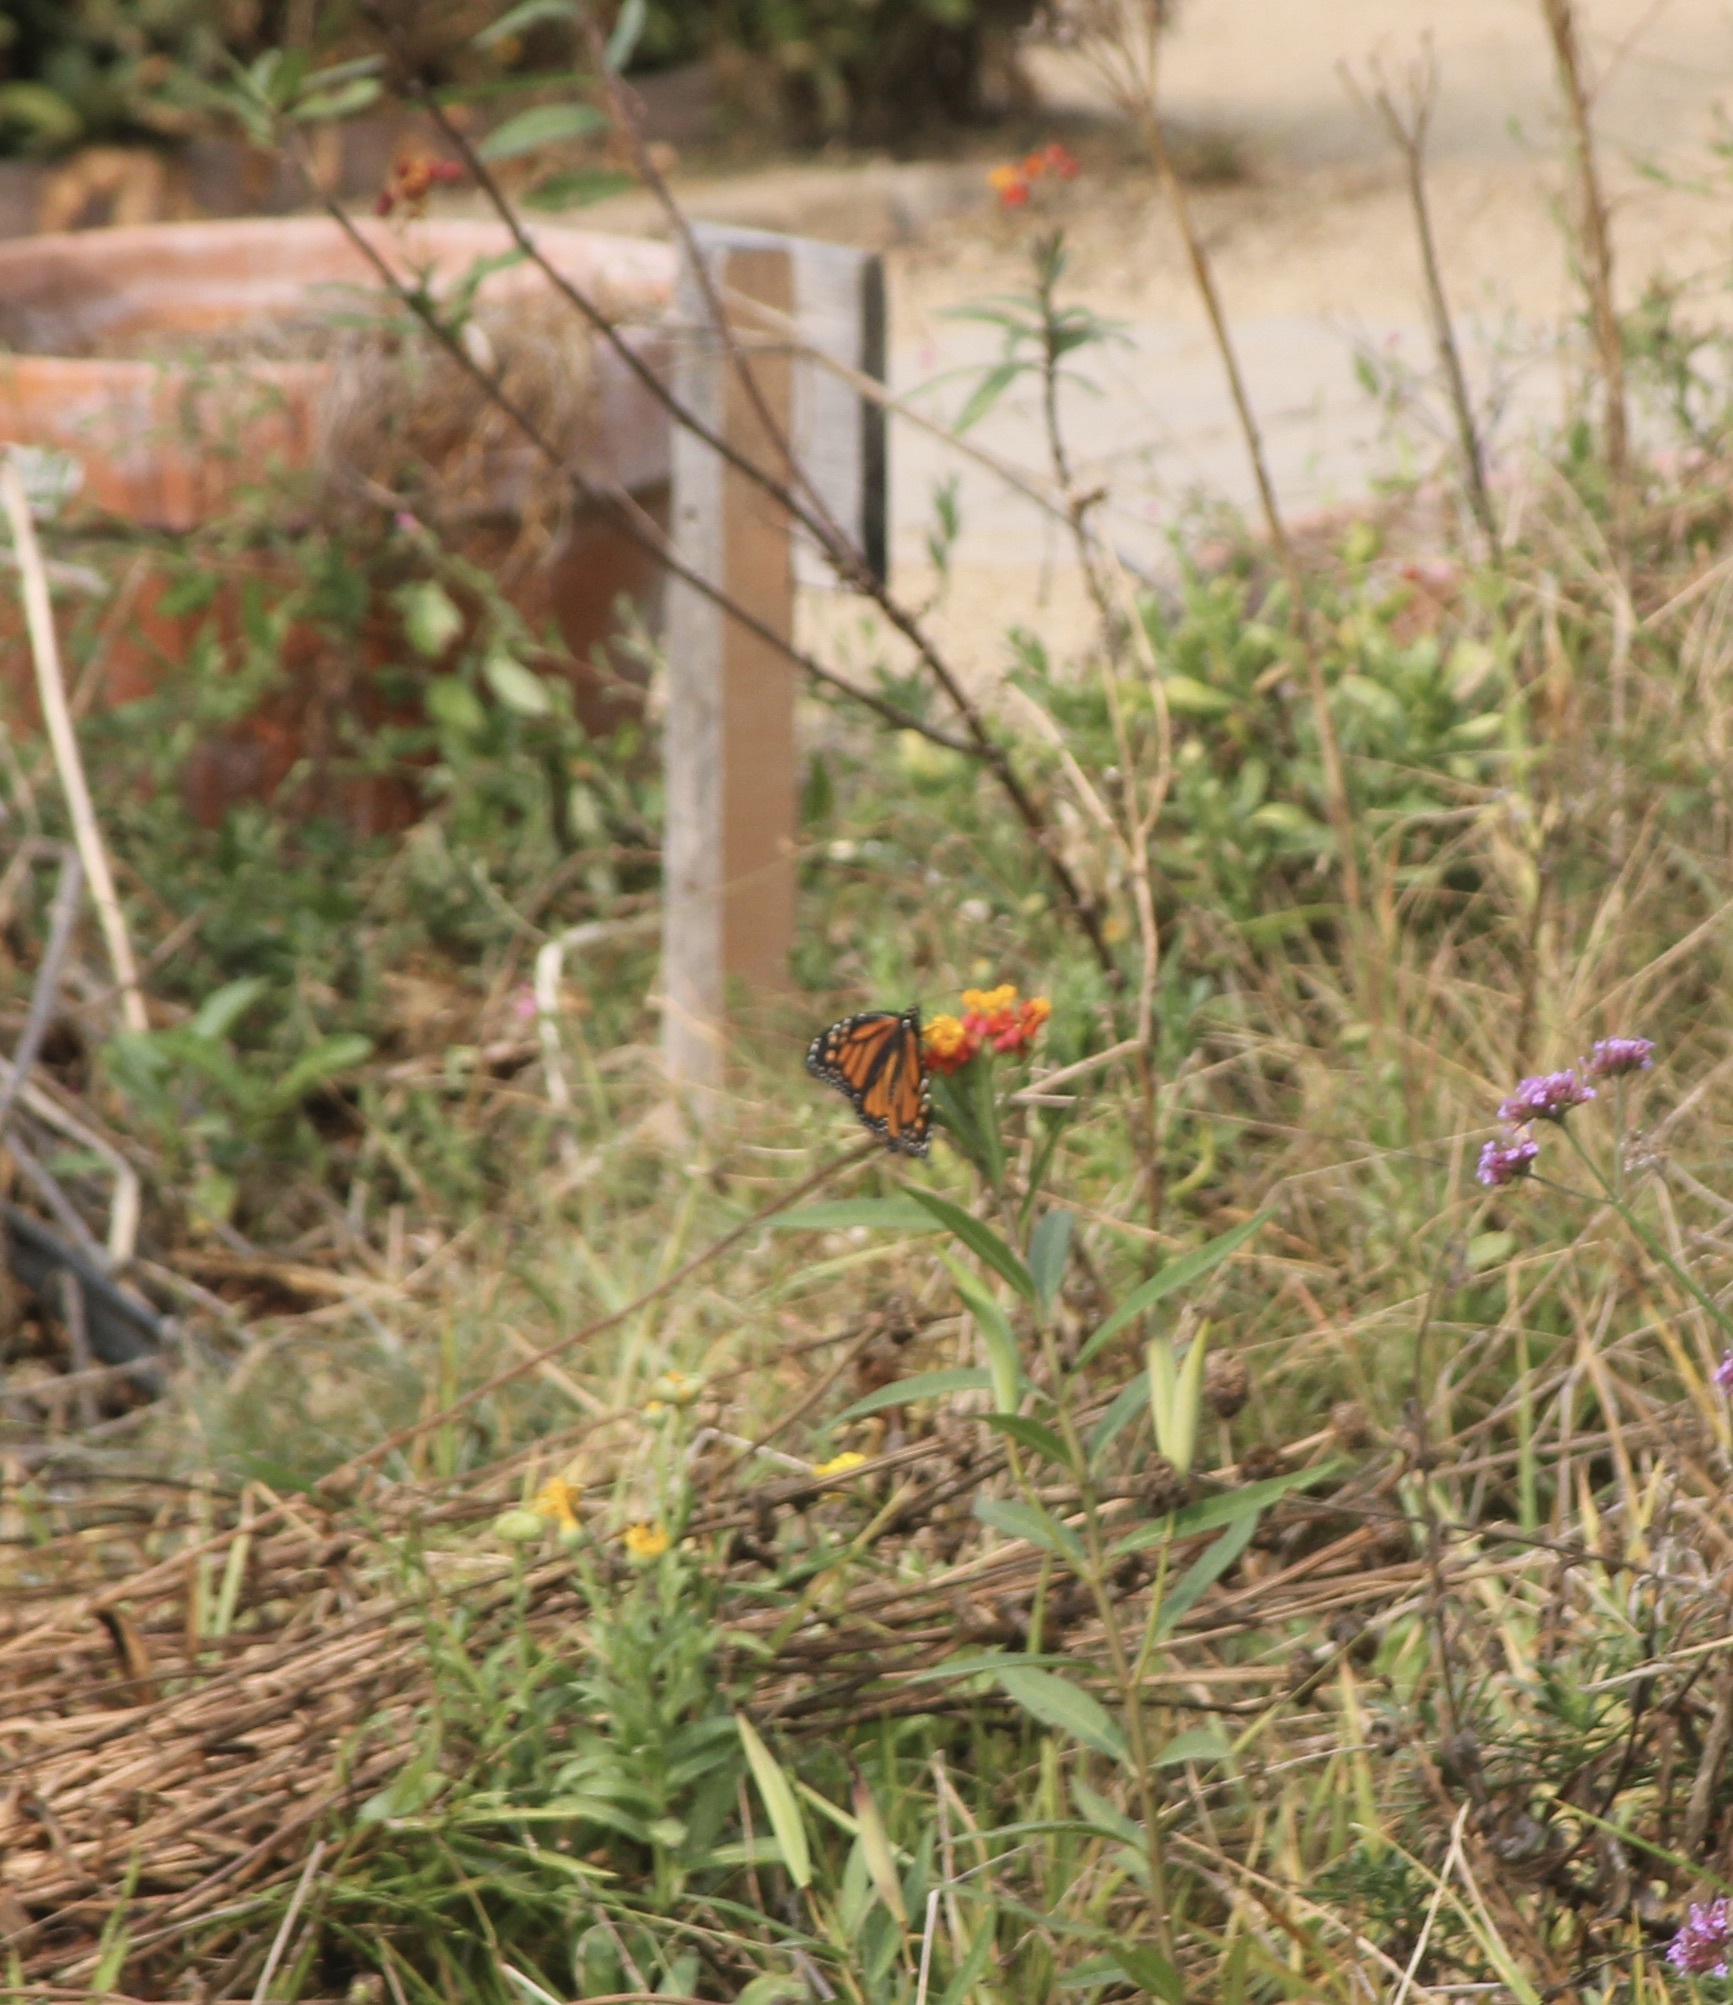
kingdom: Animalia
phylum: Arthropoda
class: Insecta
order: Lepidoptera
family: Nymphalidae
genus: Danaus
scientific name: Danaus plexippus
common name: Monarch
